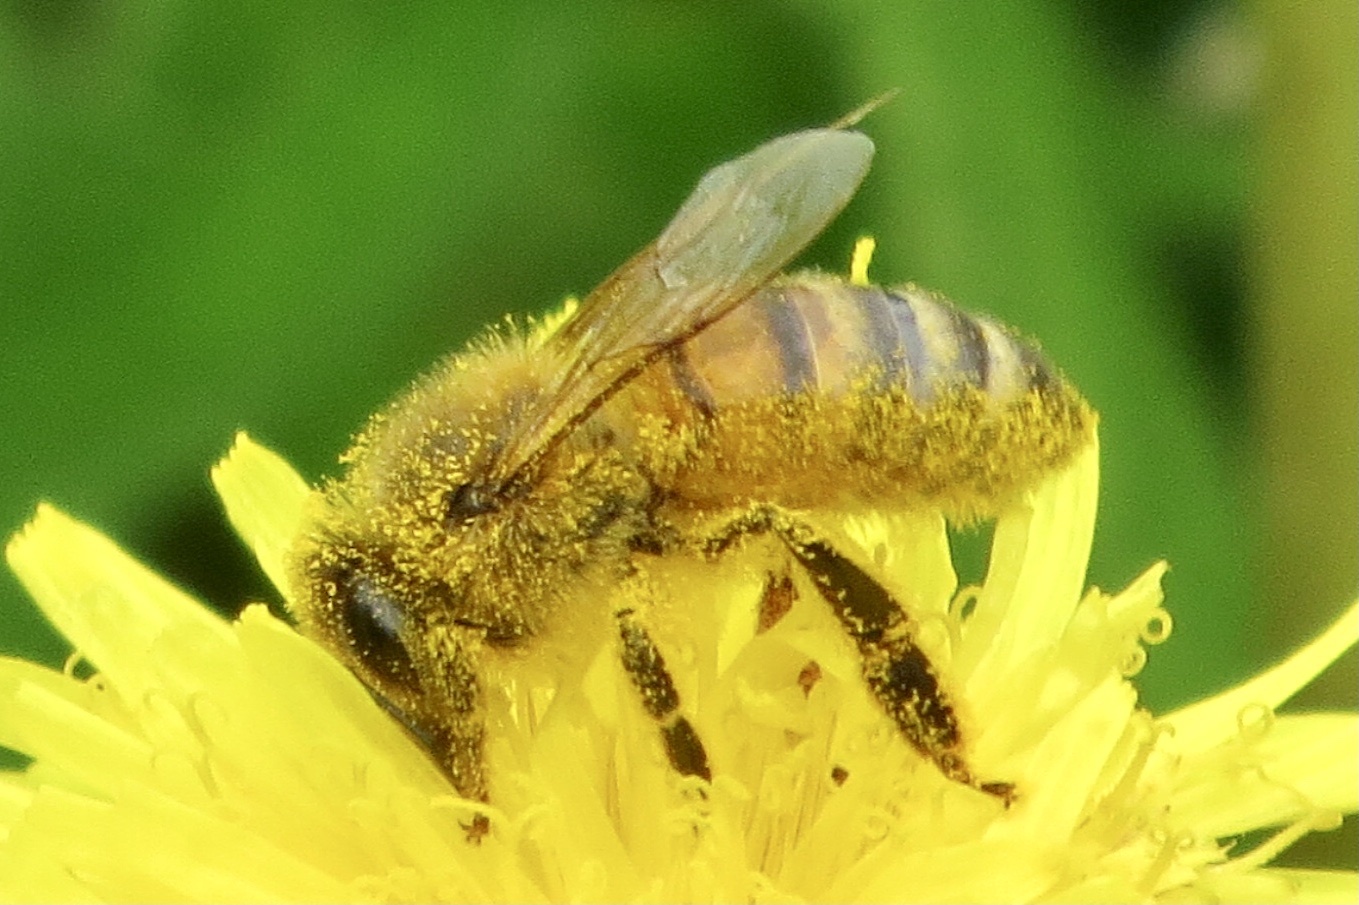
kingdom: Animalia
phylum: Arthropoda
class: Insecta
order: Hymenoptera
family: Apidae
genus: Apis
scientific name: Apis mellifera
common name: Honey bee
